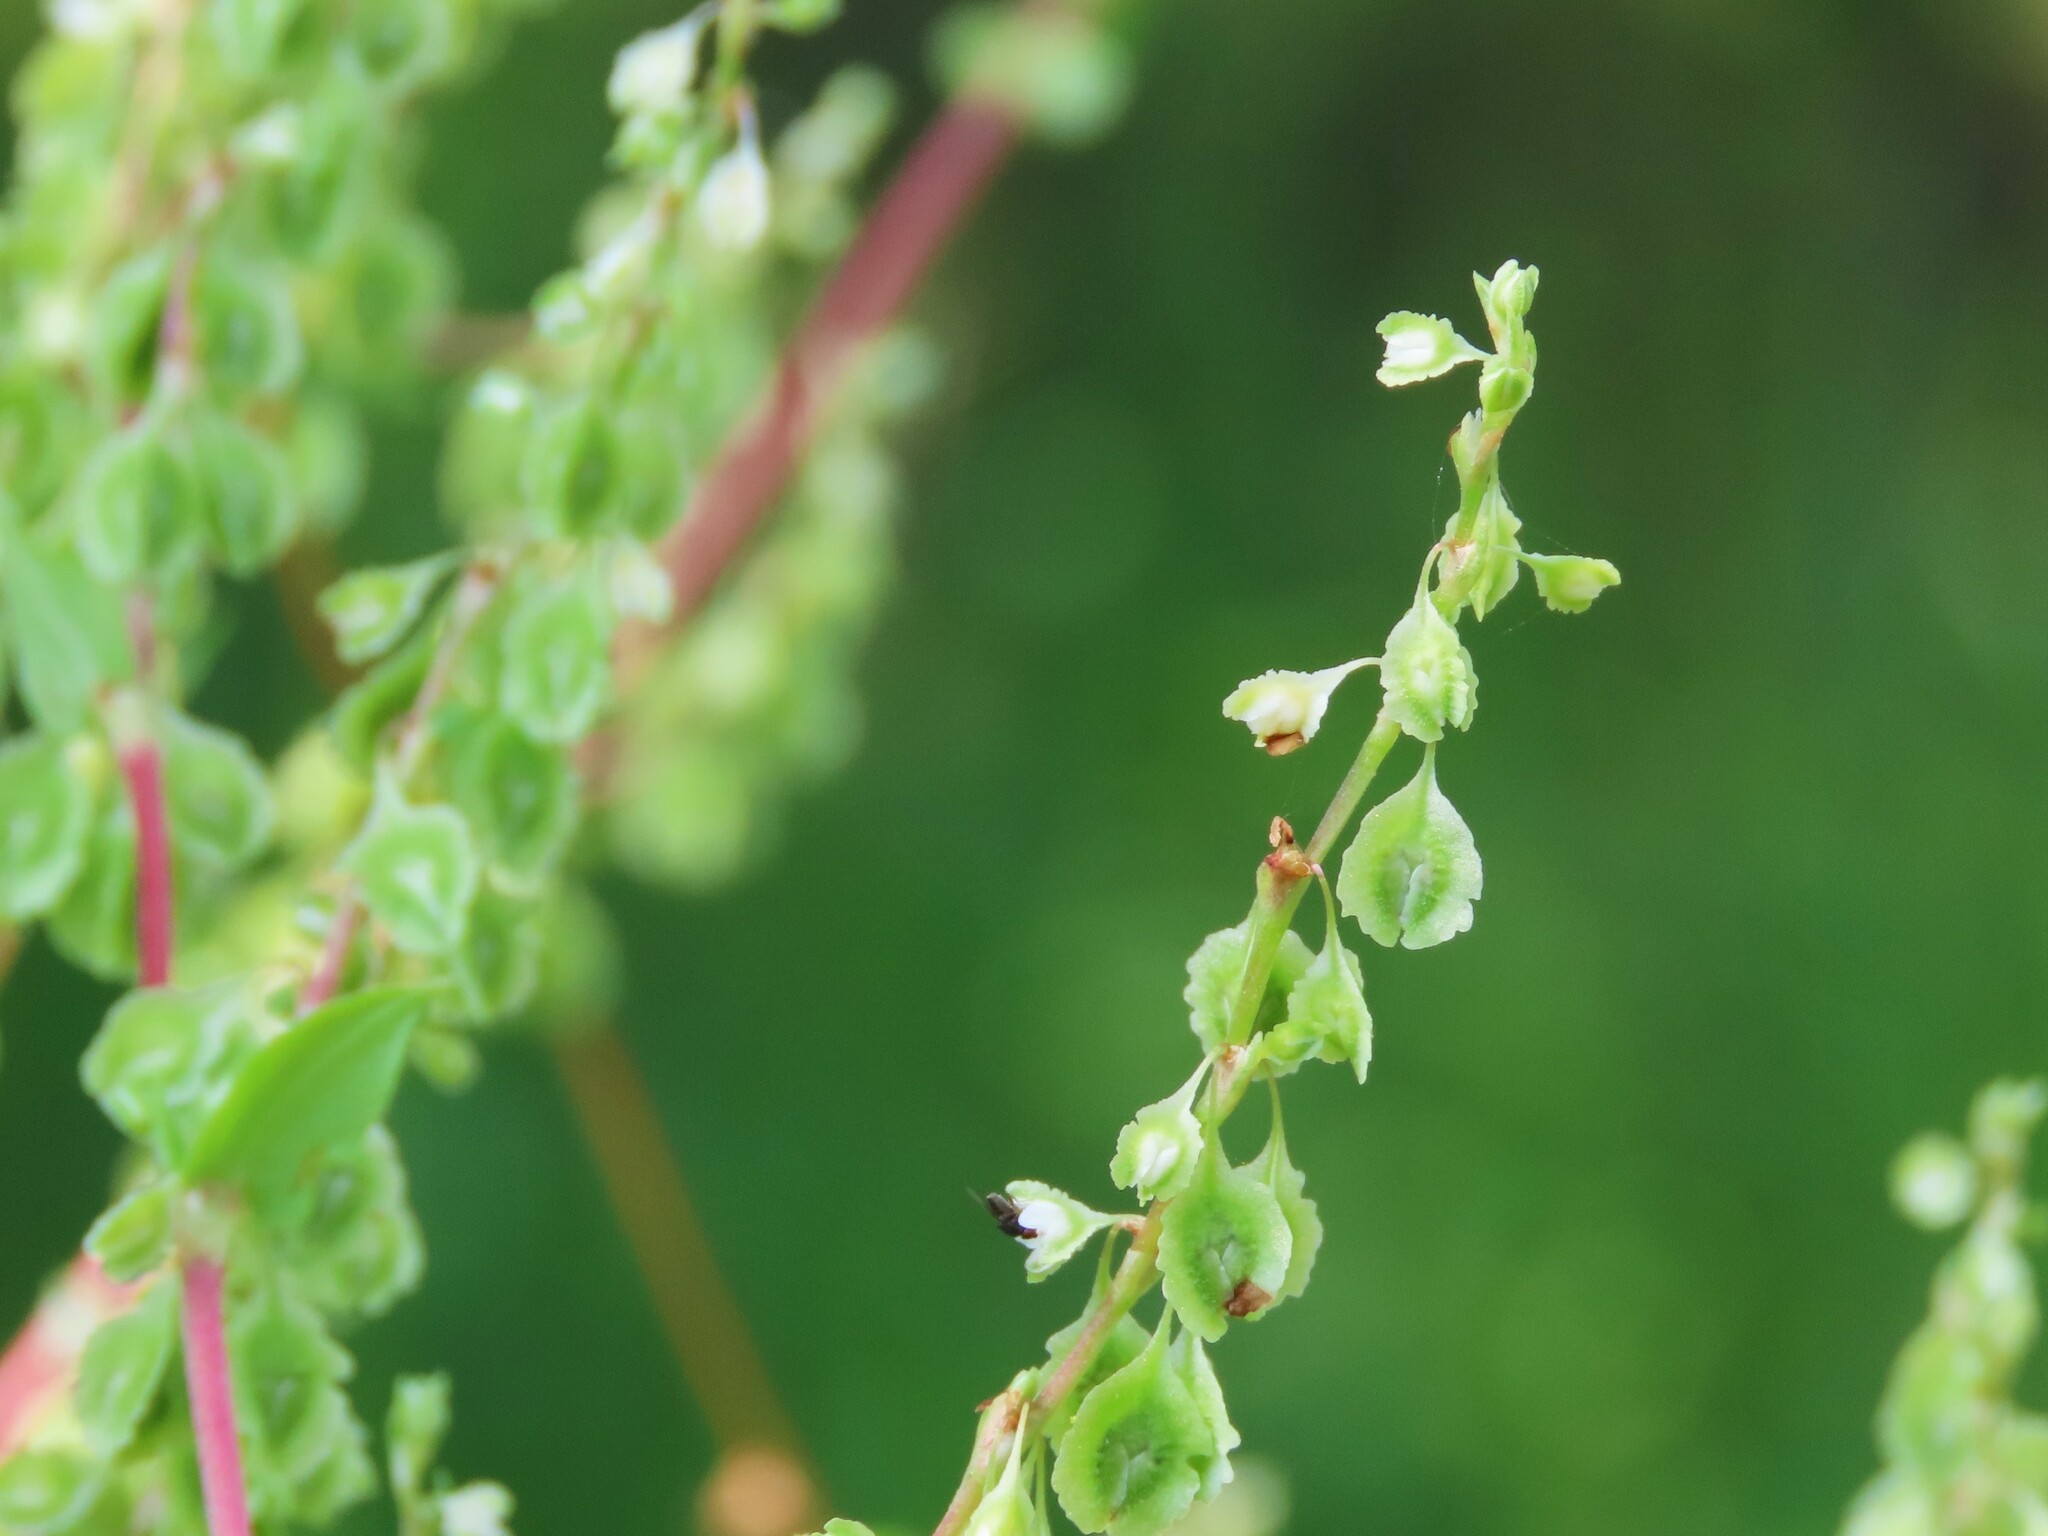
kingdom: Plantae
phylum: Tracheophyta
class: Magnoliopsida
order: Caryophyllales
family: Polygonaceae
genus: Fallopia
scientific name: Fallopia scandens
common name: Climbing false buckwheat
